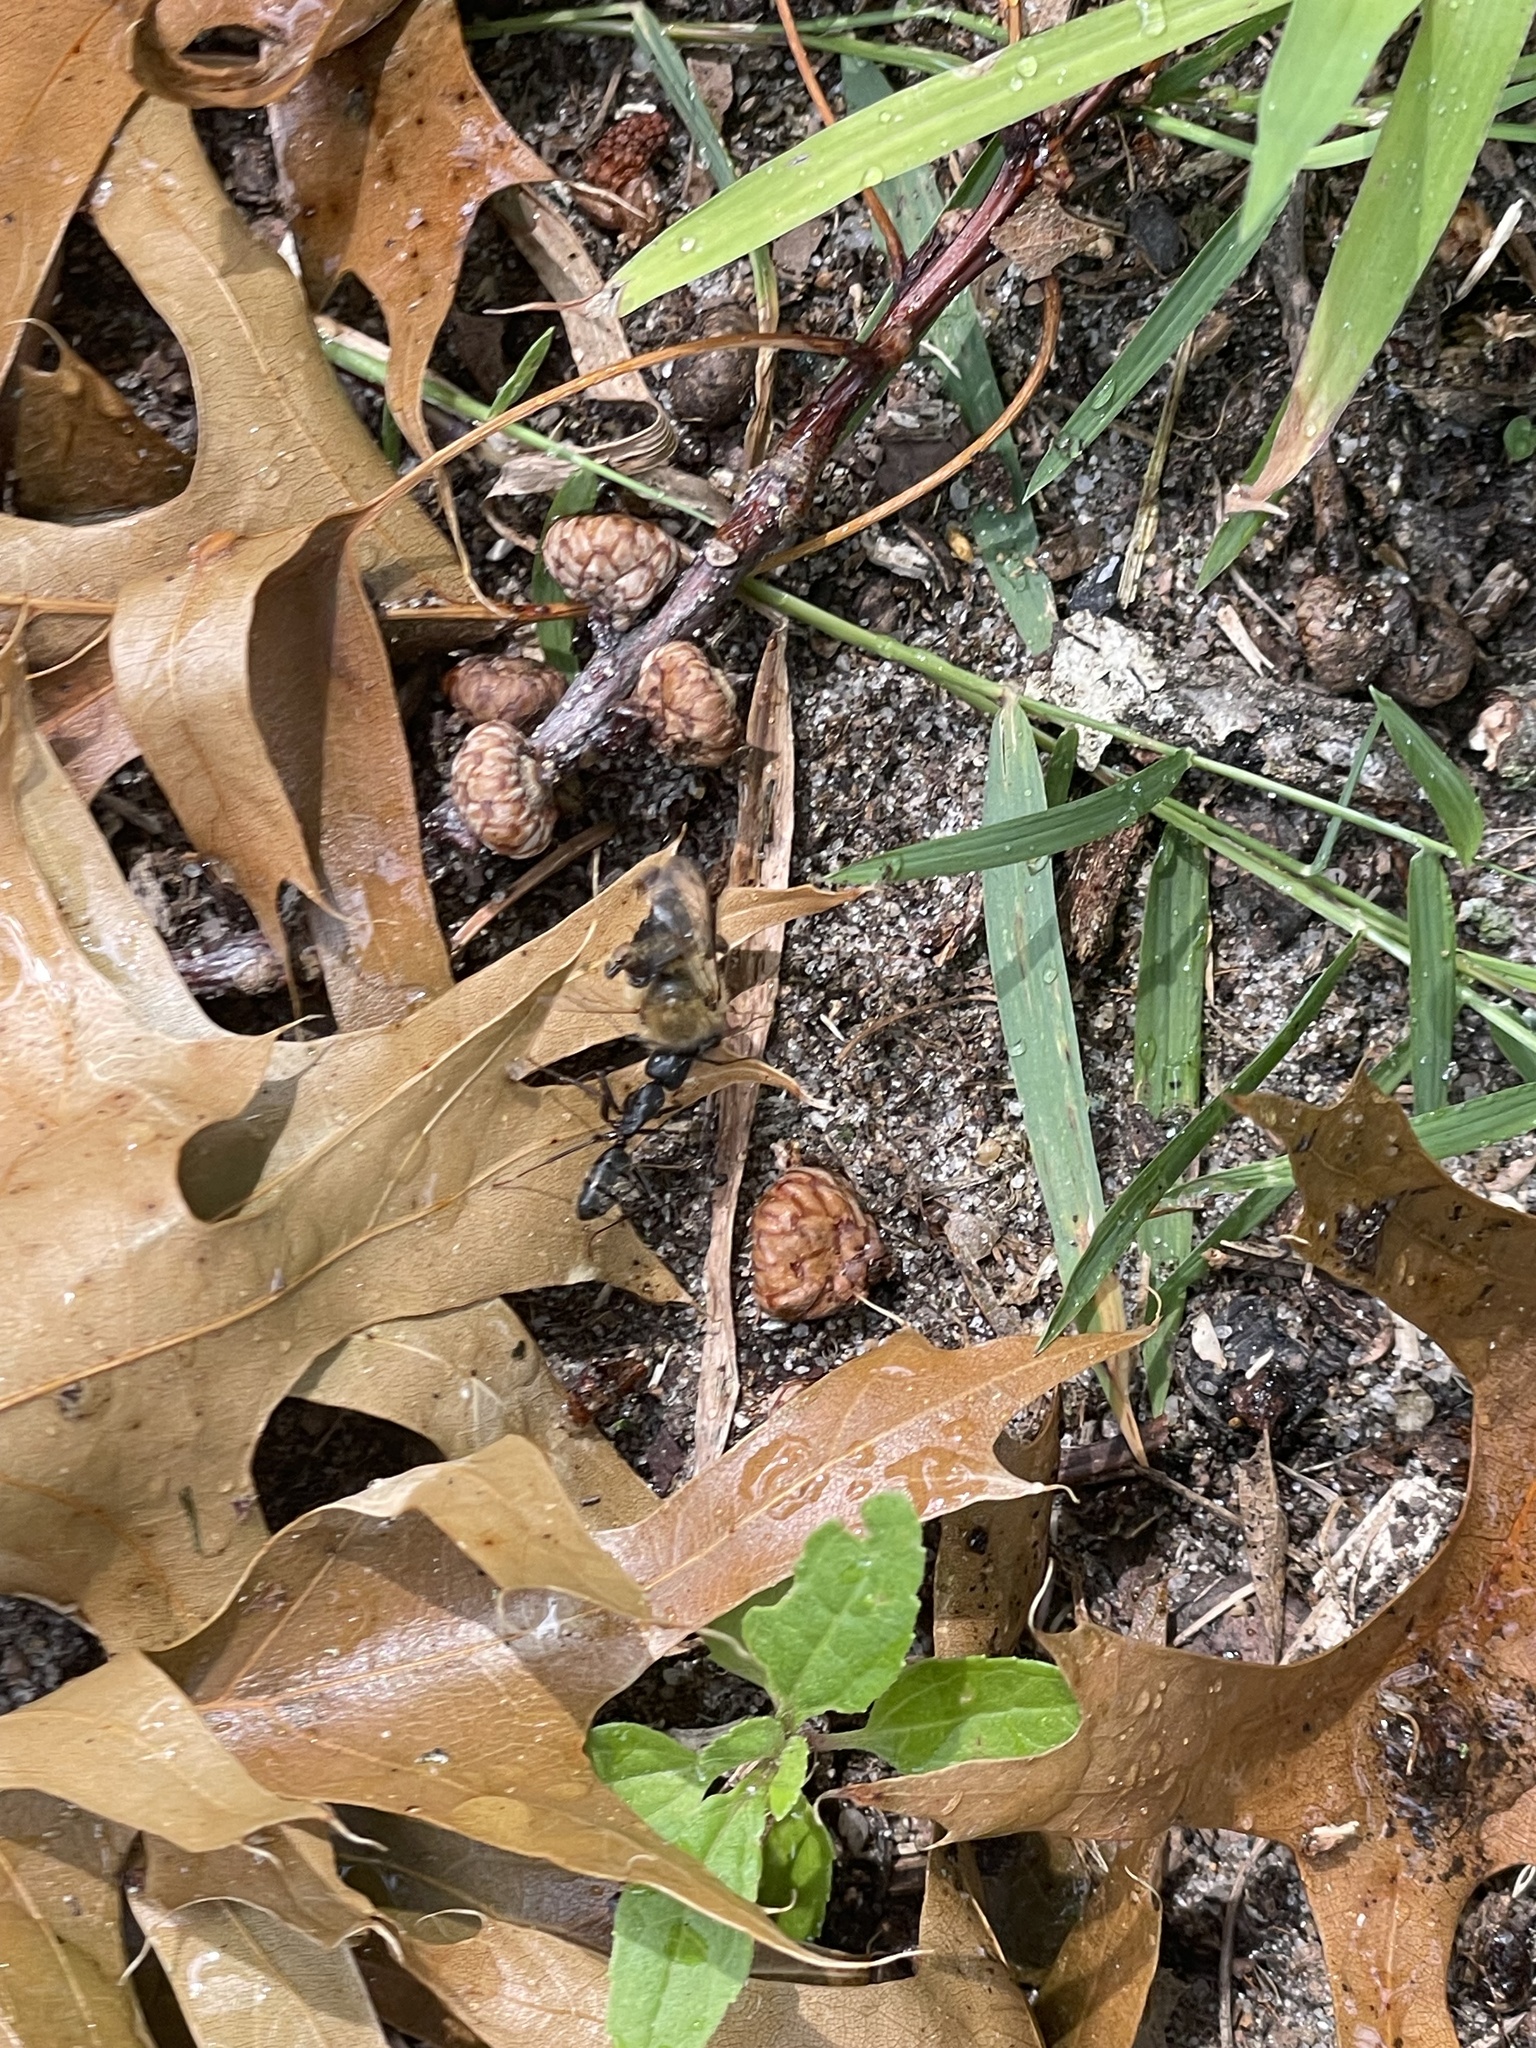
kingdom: Animalia
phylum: Arthropoda
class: Insecta
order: Hymenoptera
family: Formicidae
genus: Camponotus
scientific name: Camponotus pennsylvanicus
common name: Black carpenter ant
